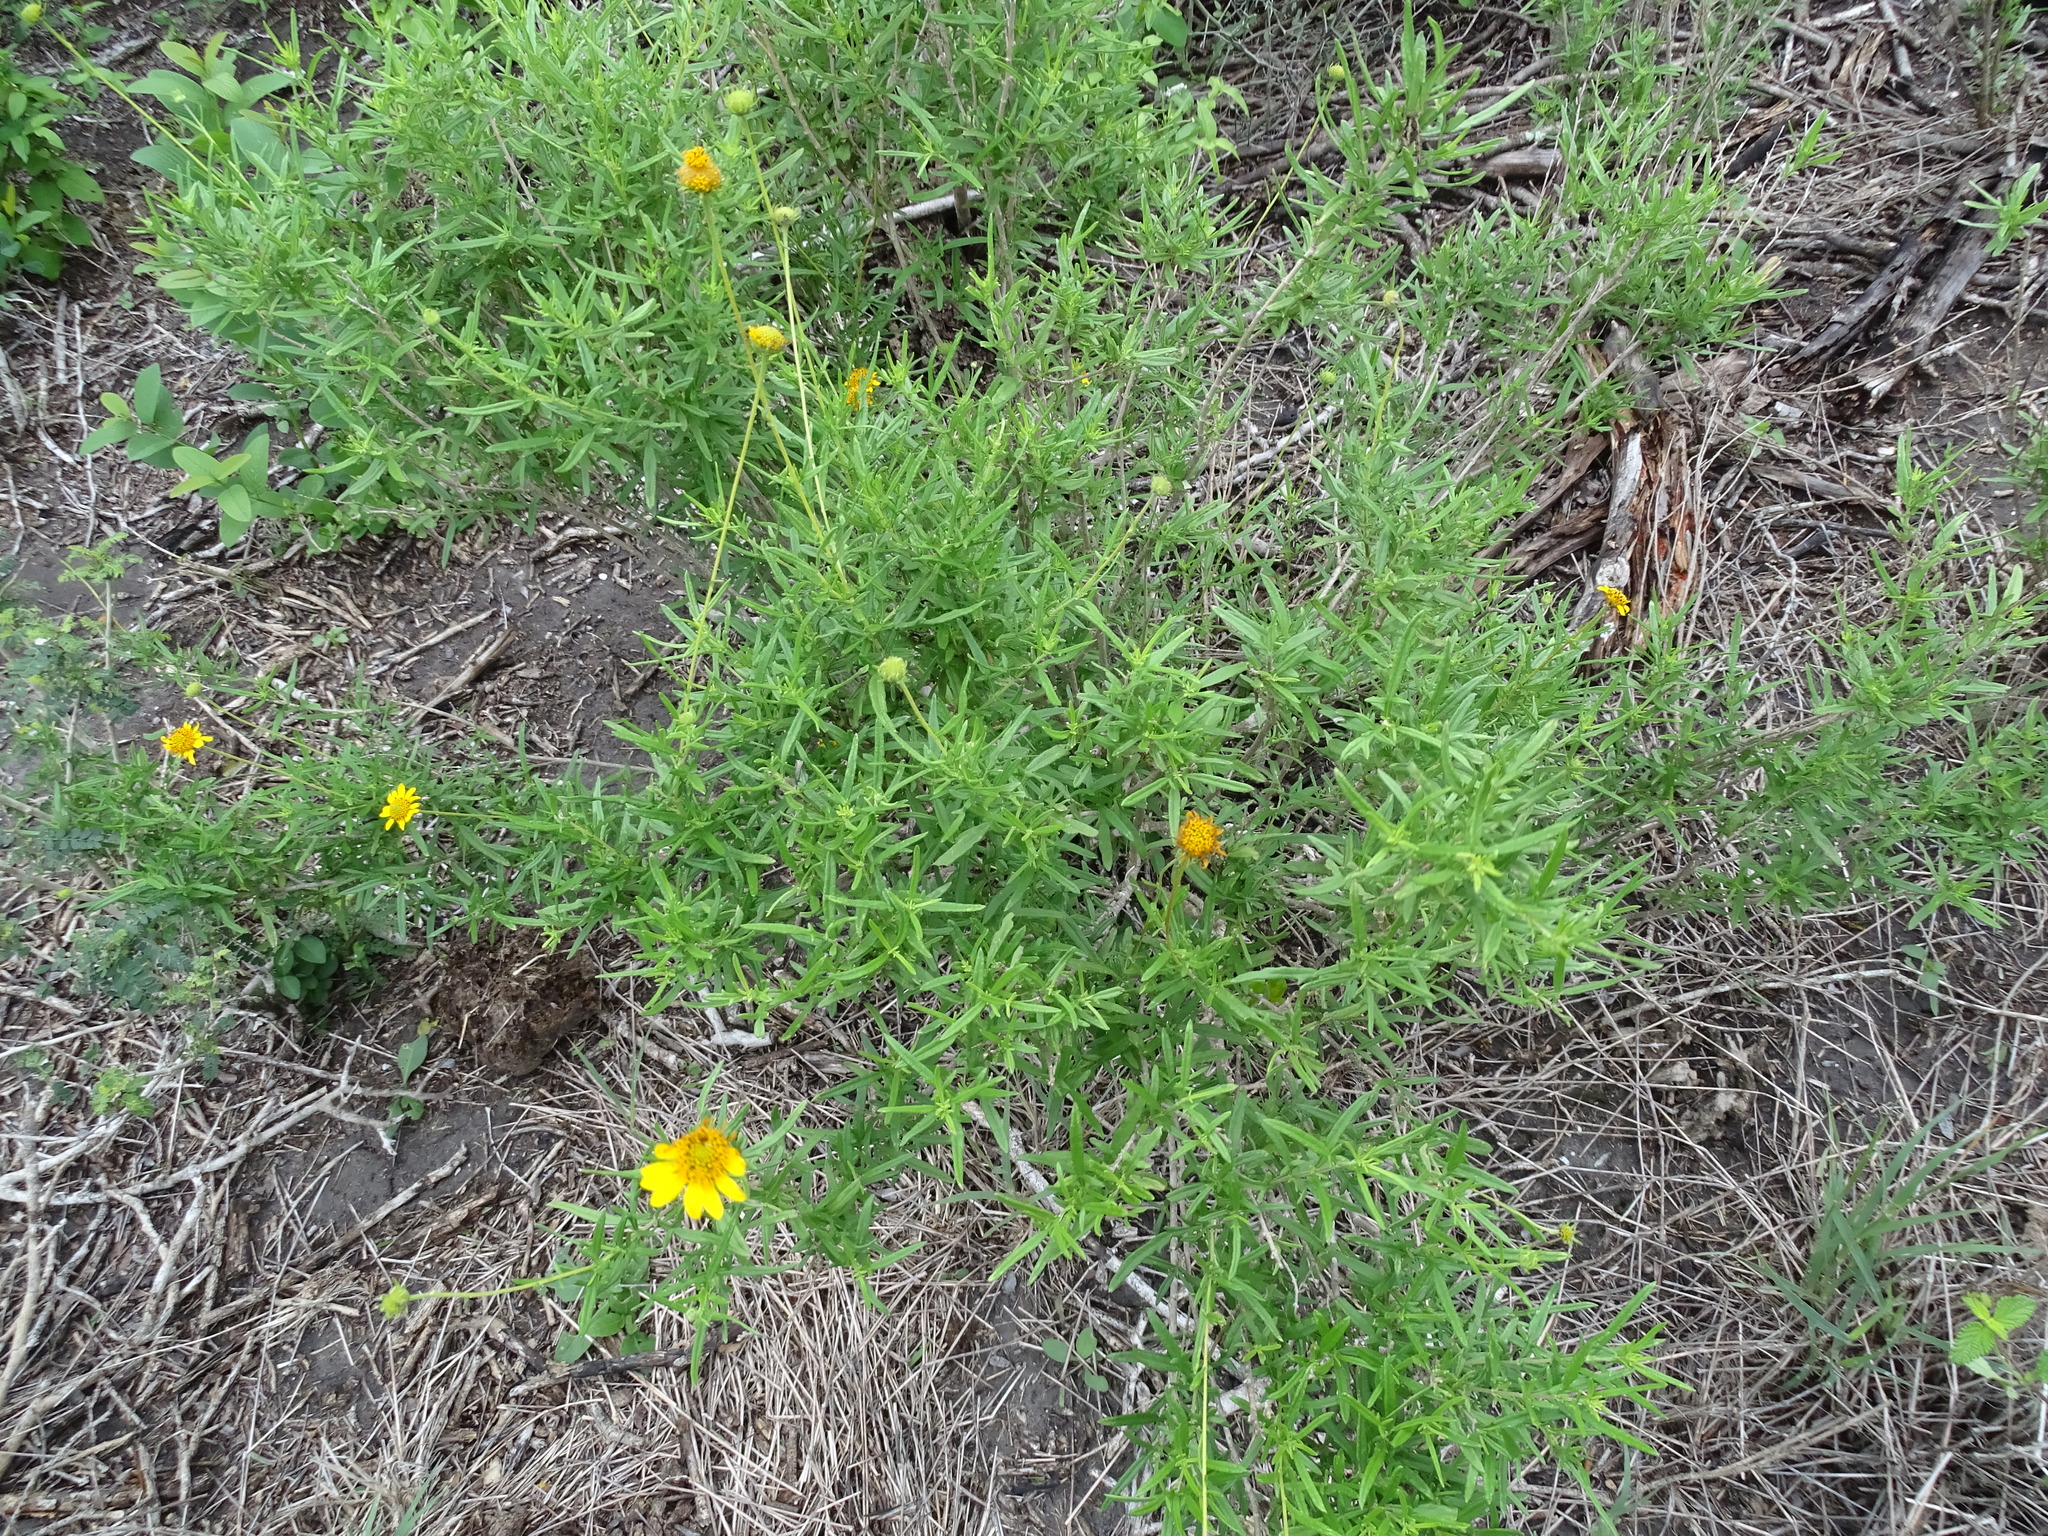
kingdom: Plantae
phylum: Tracheophyta
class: Magnoliopsida
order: Asterales
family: Asteraceae
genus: Sidneya
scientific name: Sidneya tenuifolia
